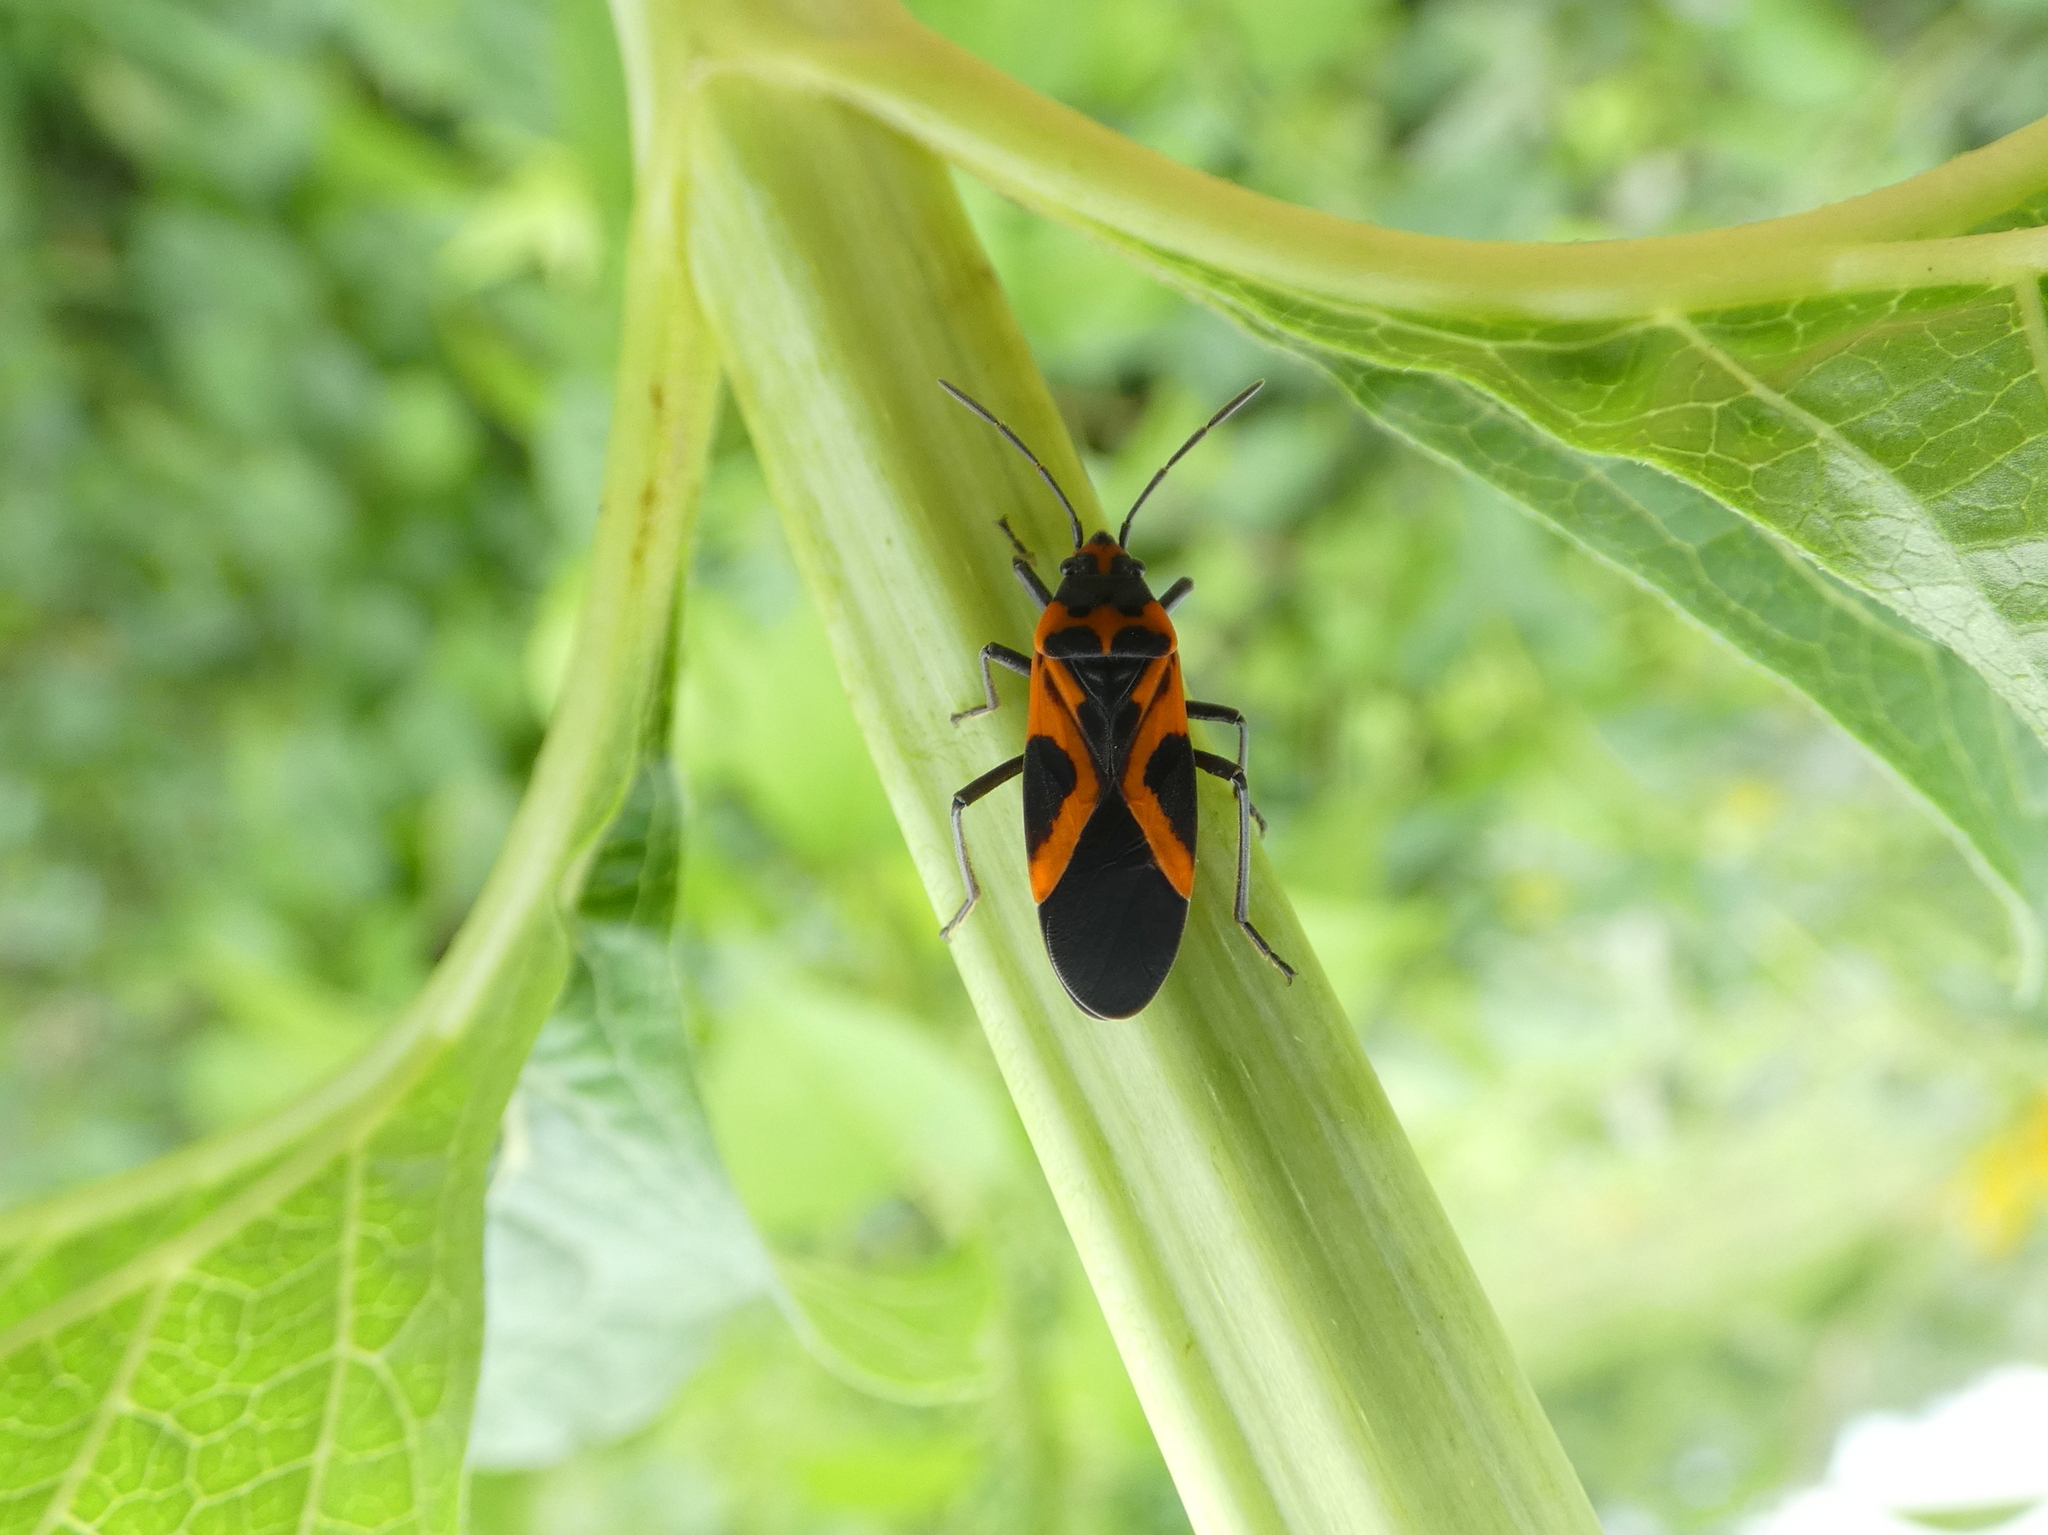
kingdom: Animalia
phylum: Arthropoda
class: Insecta
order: Hemiptera
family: Lygaeidae
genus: Lygaeus
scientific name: Lygaeus turcicus
